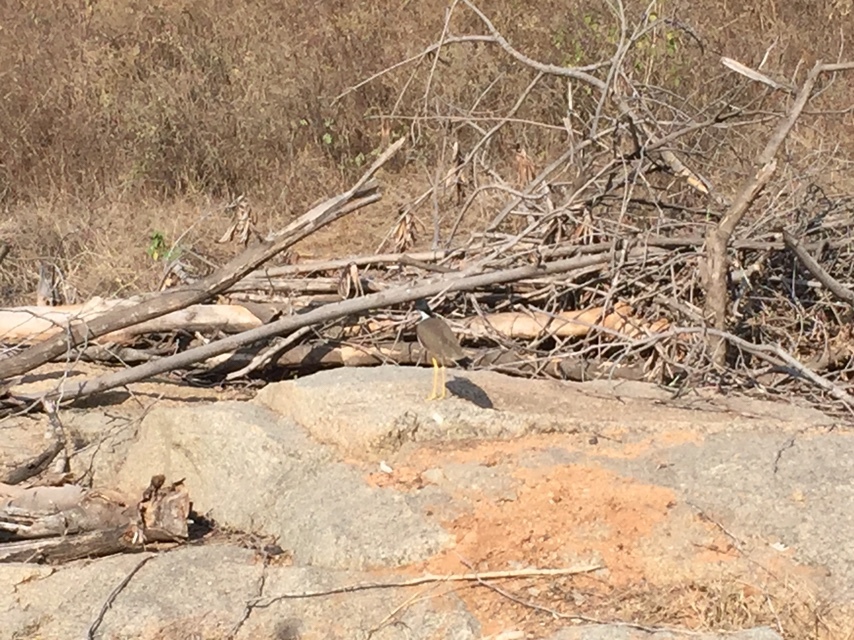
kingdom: Animalia
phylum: Chordata
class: Aves
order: Charadriiformes
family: Charadriidae
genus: Vanellus
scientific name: Vanellus indicus
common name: Red-wattled lapwing
